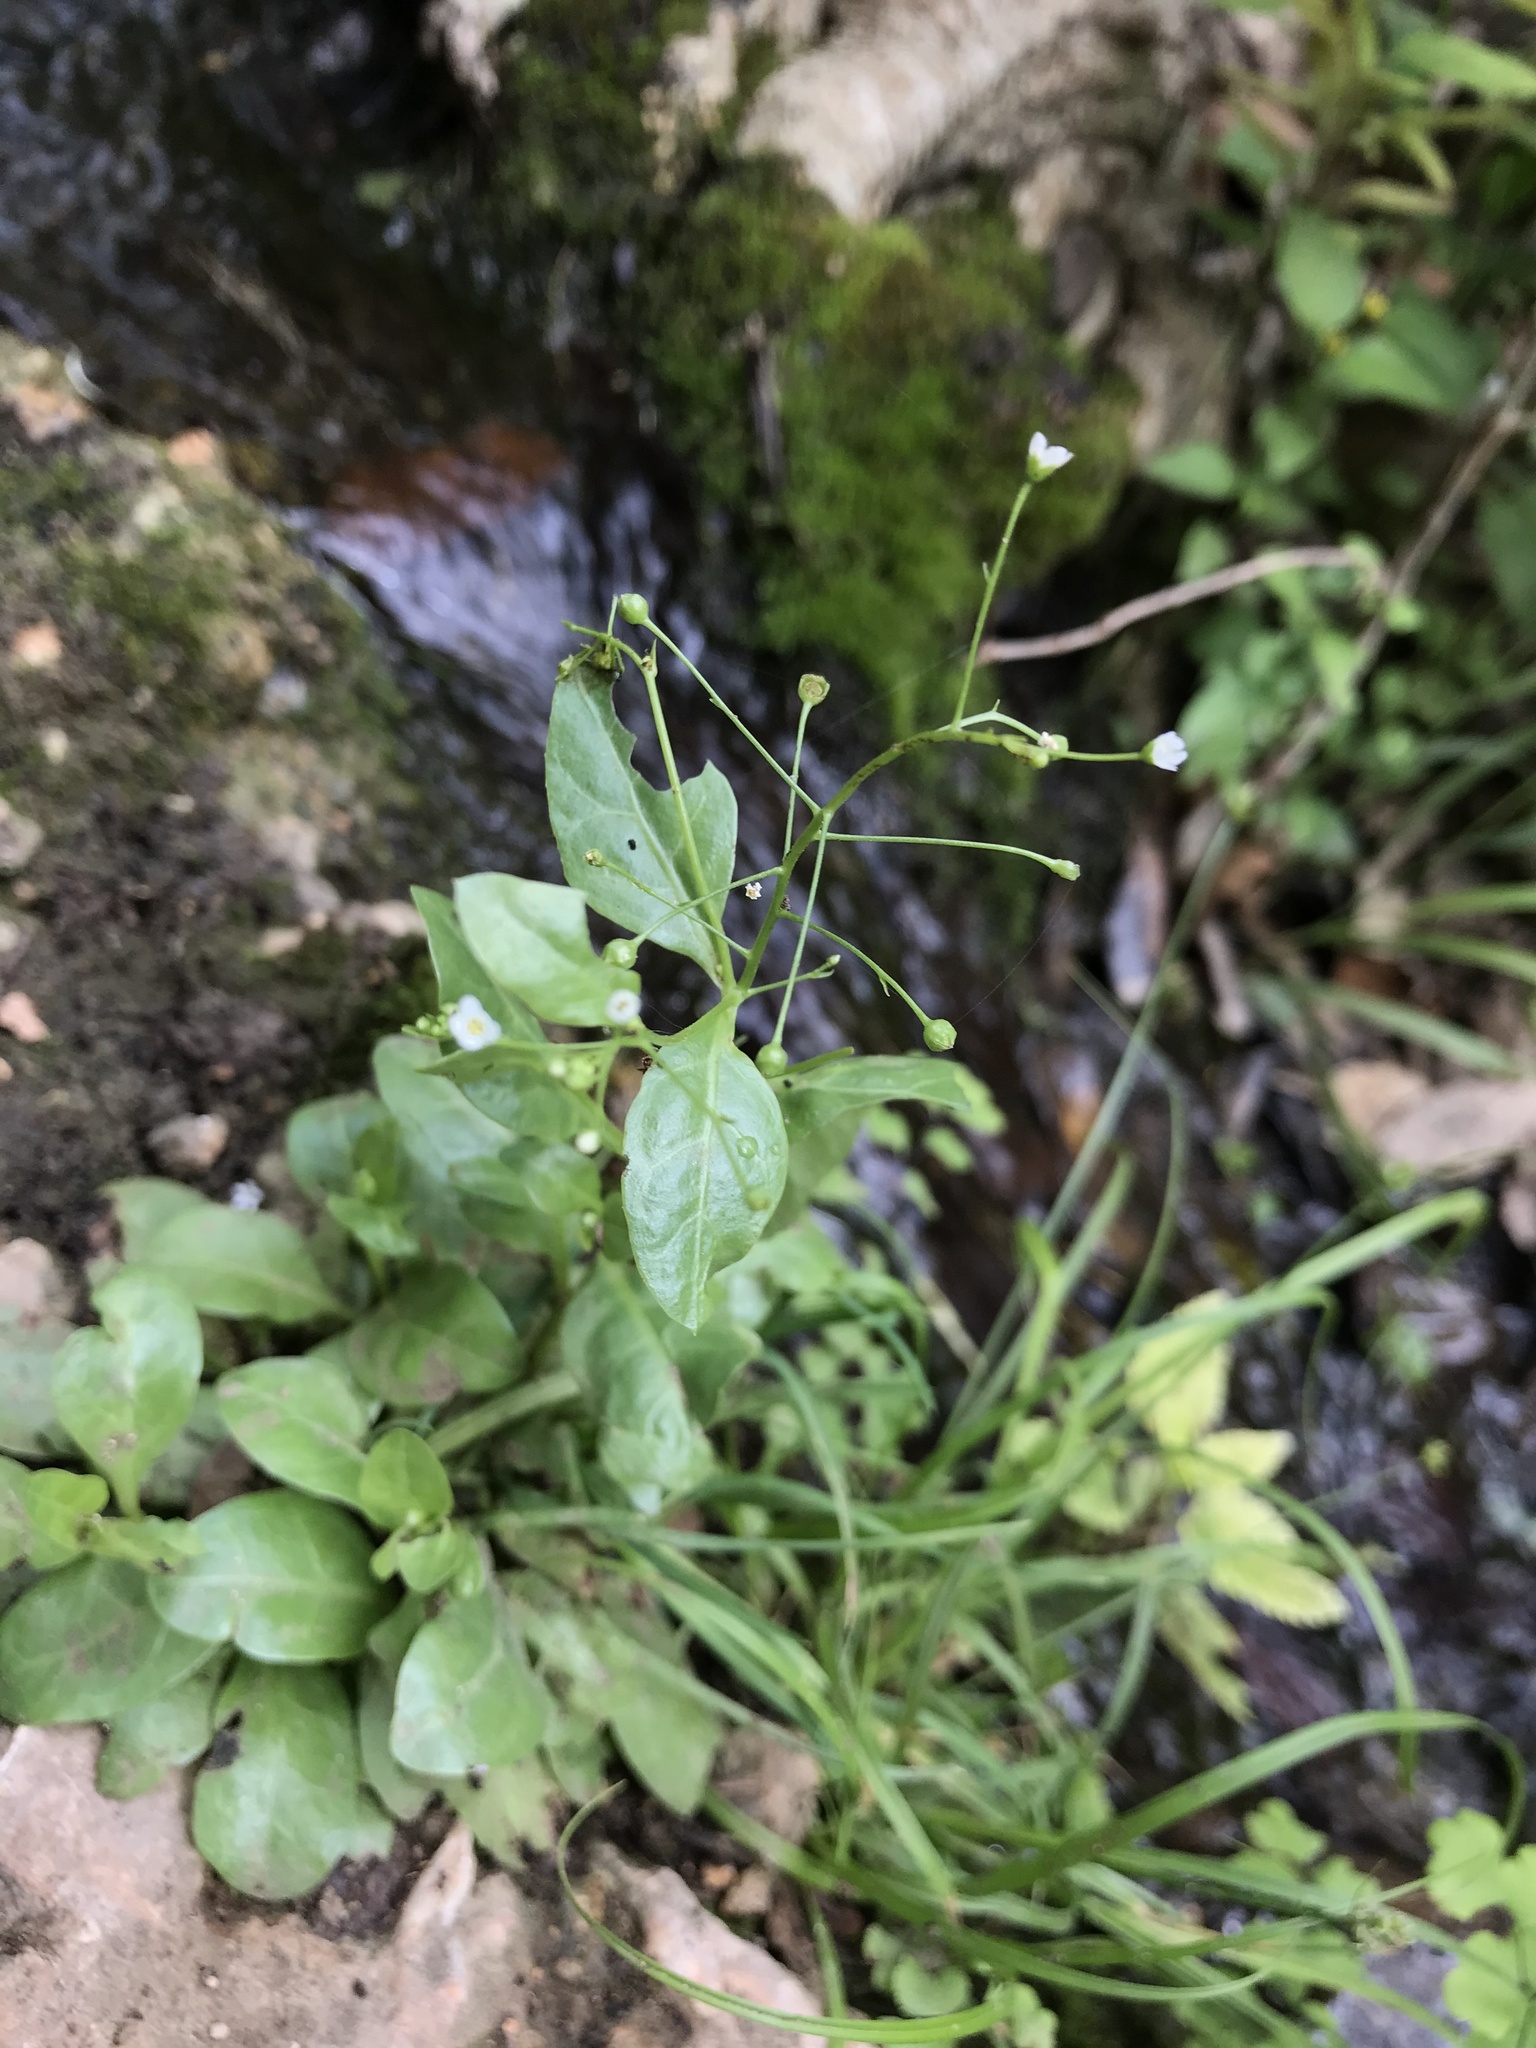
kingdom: Plantae
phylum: Tracheophyta
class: Magnoliopsida
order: Ericales
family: Primulaceae
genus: Samolus
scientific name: Samolus parviflorus
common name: False water pimpernel
